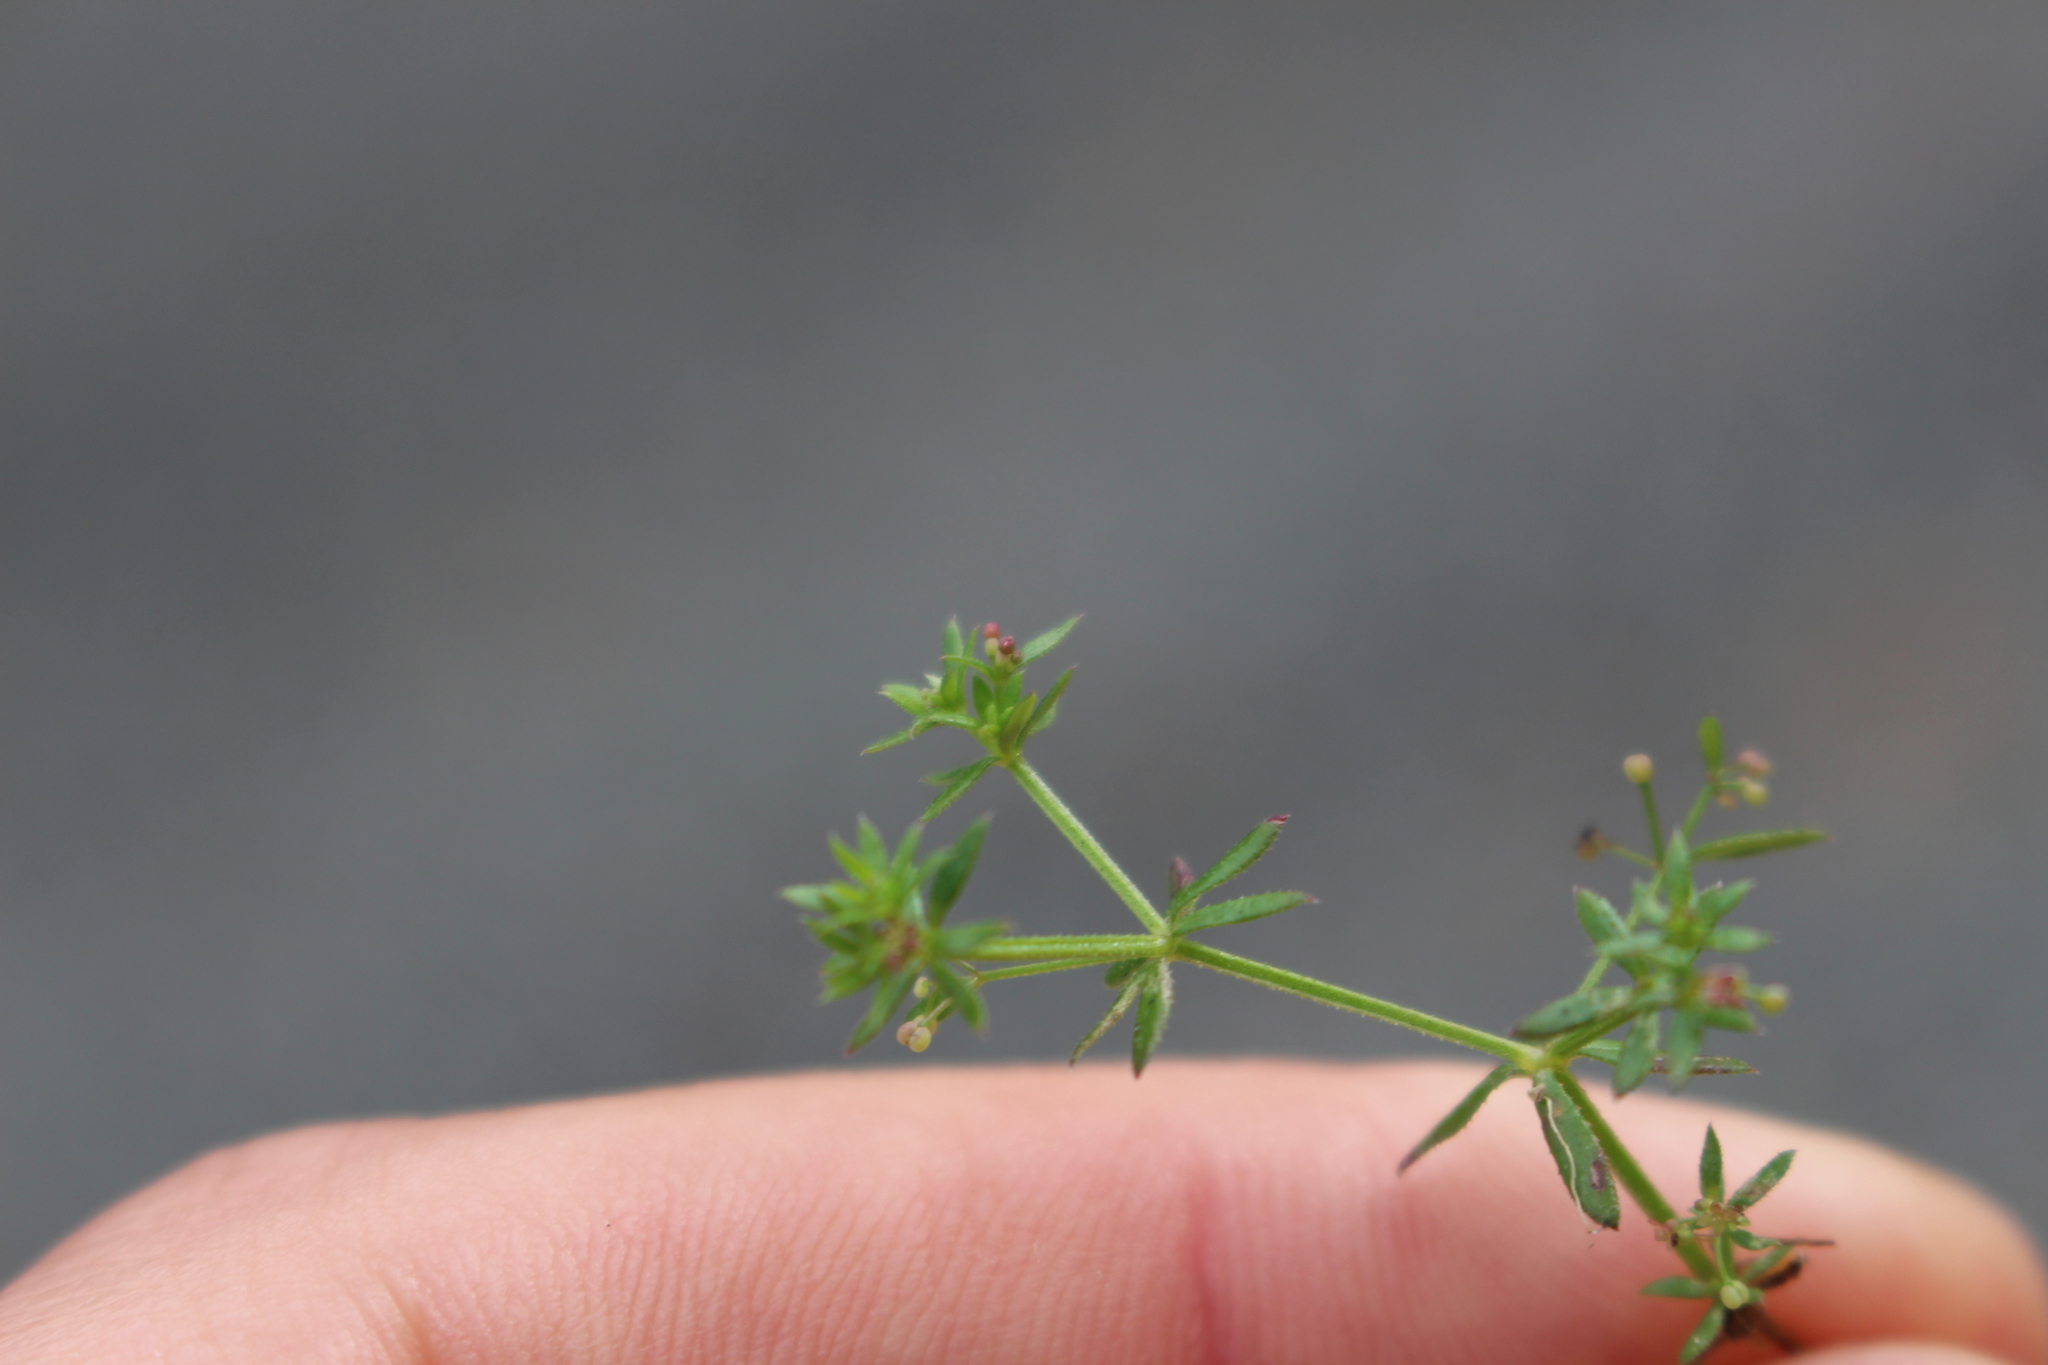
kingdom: Plantae
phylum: Tracheophyta
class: Magnoliopsida
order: Gentianales
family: Rubiaceae
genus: Galium
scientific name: Galium divaricatum
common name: Lamarck's bedstraw
